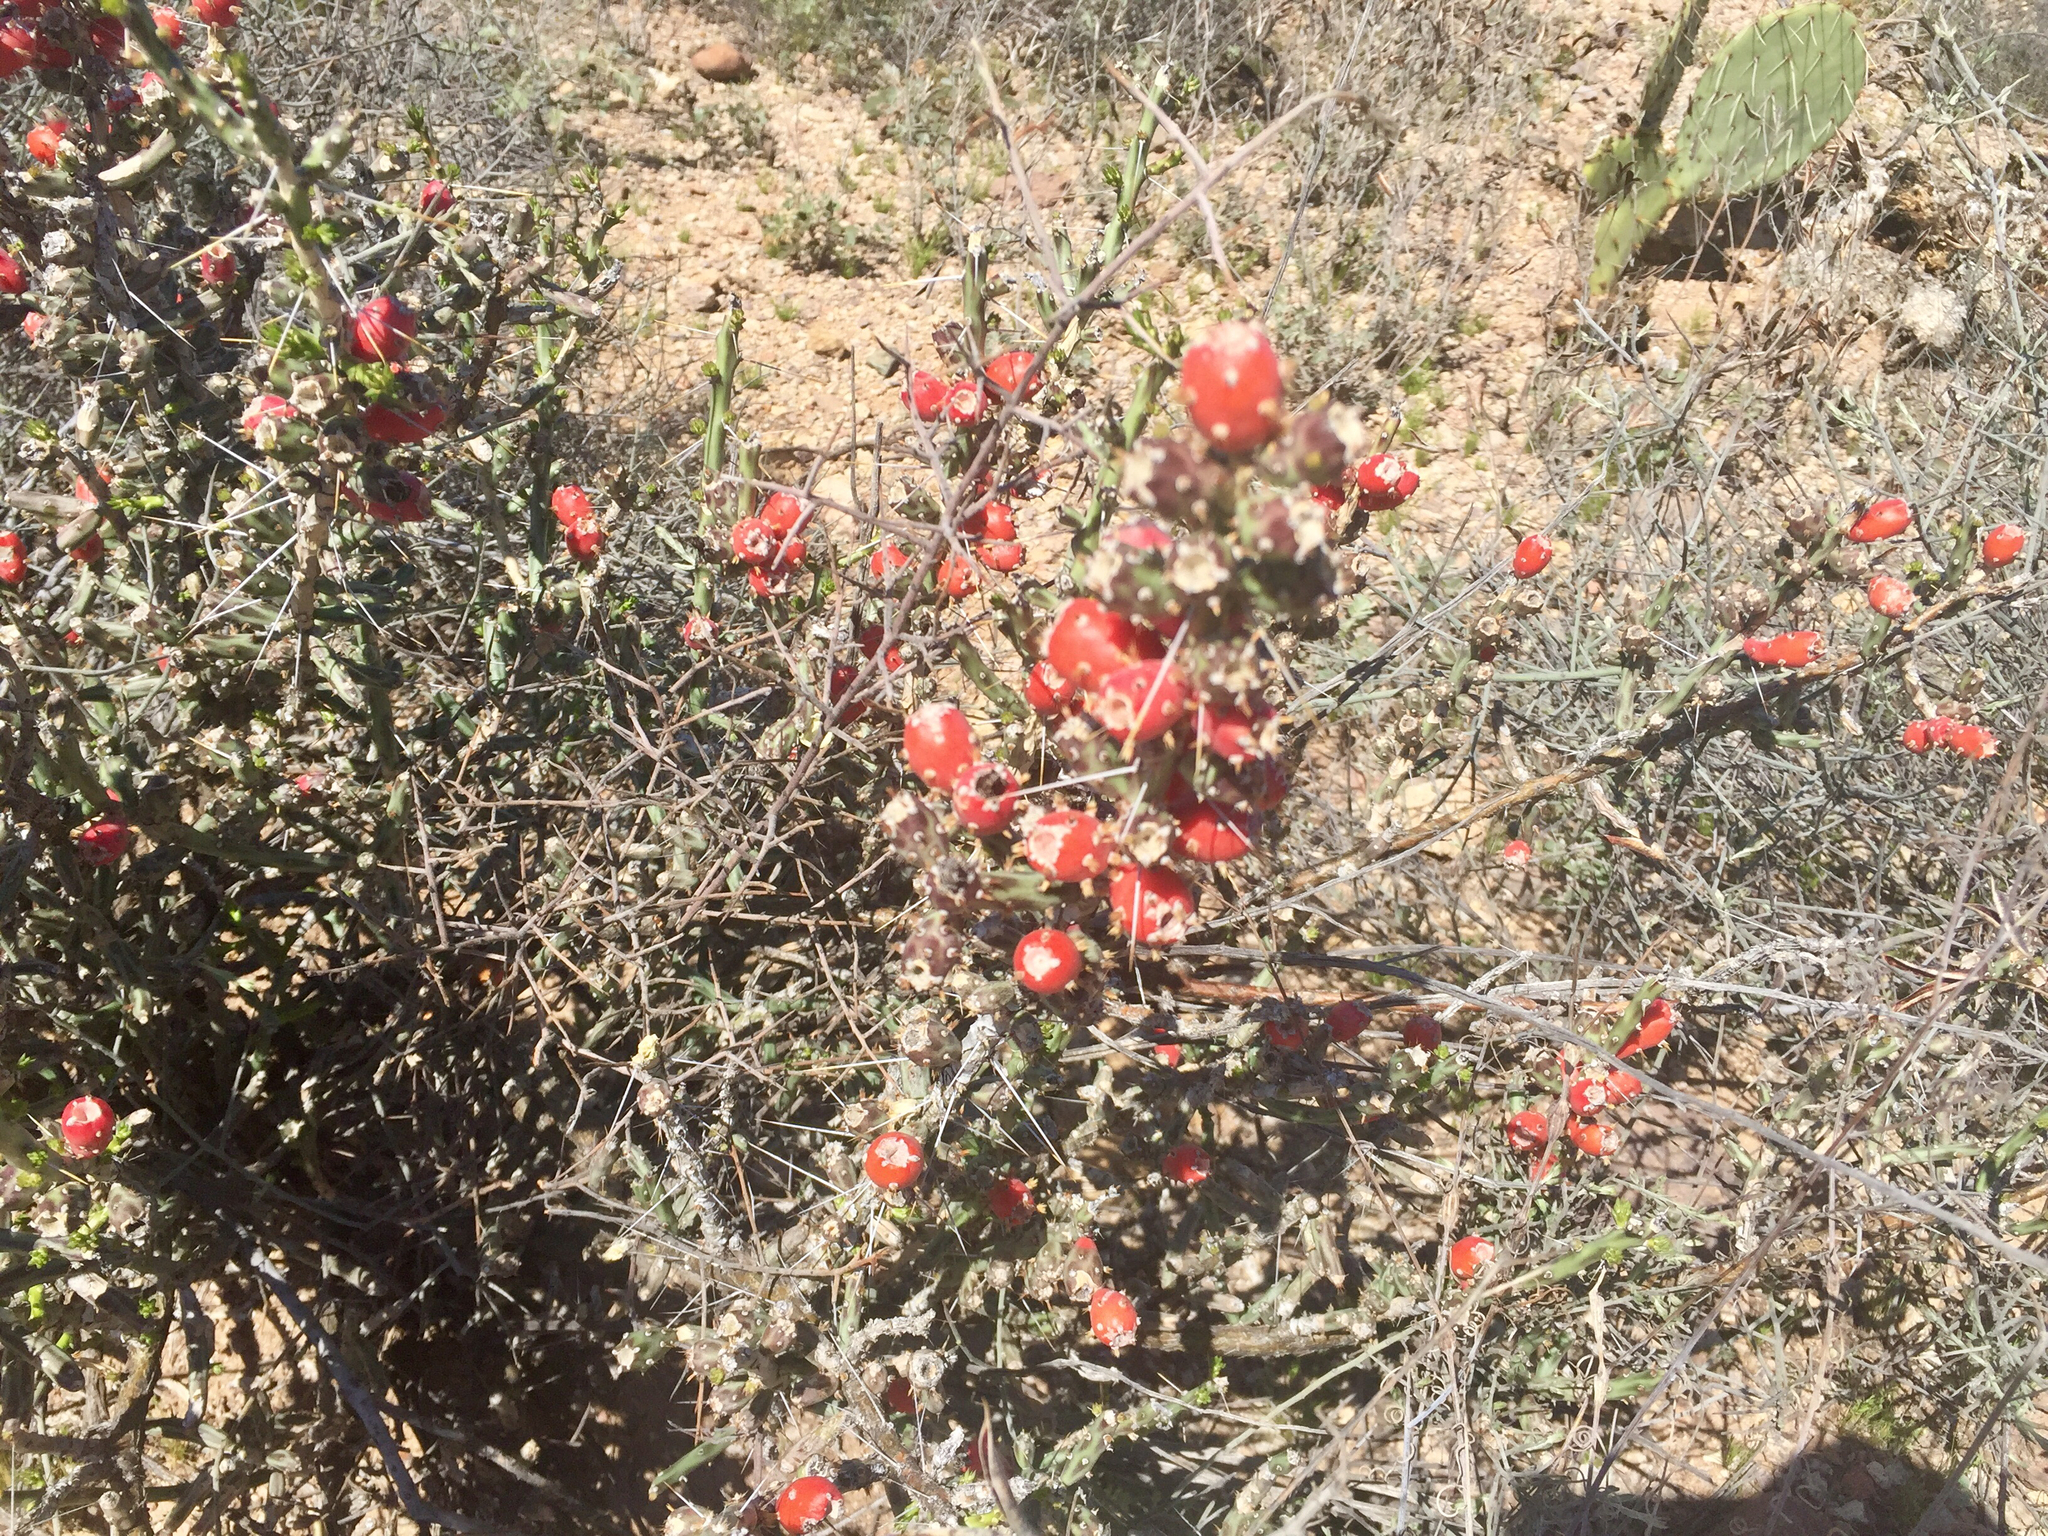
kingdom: Plantae
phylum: Tracheophyta
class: Magnoliopsida
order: Caryophyllales
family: Cactaceae
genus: Cylindropuntia
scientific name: Cylindropuntia leptocaulis
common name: Christmas cactus
